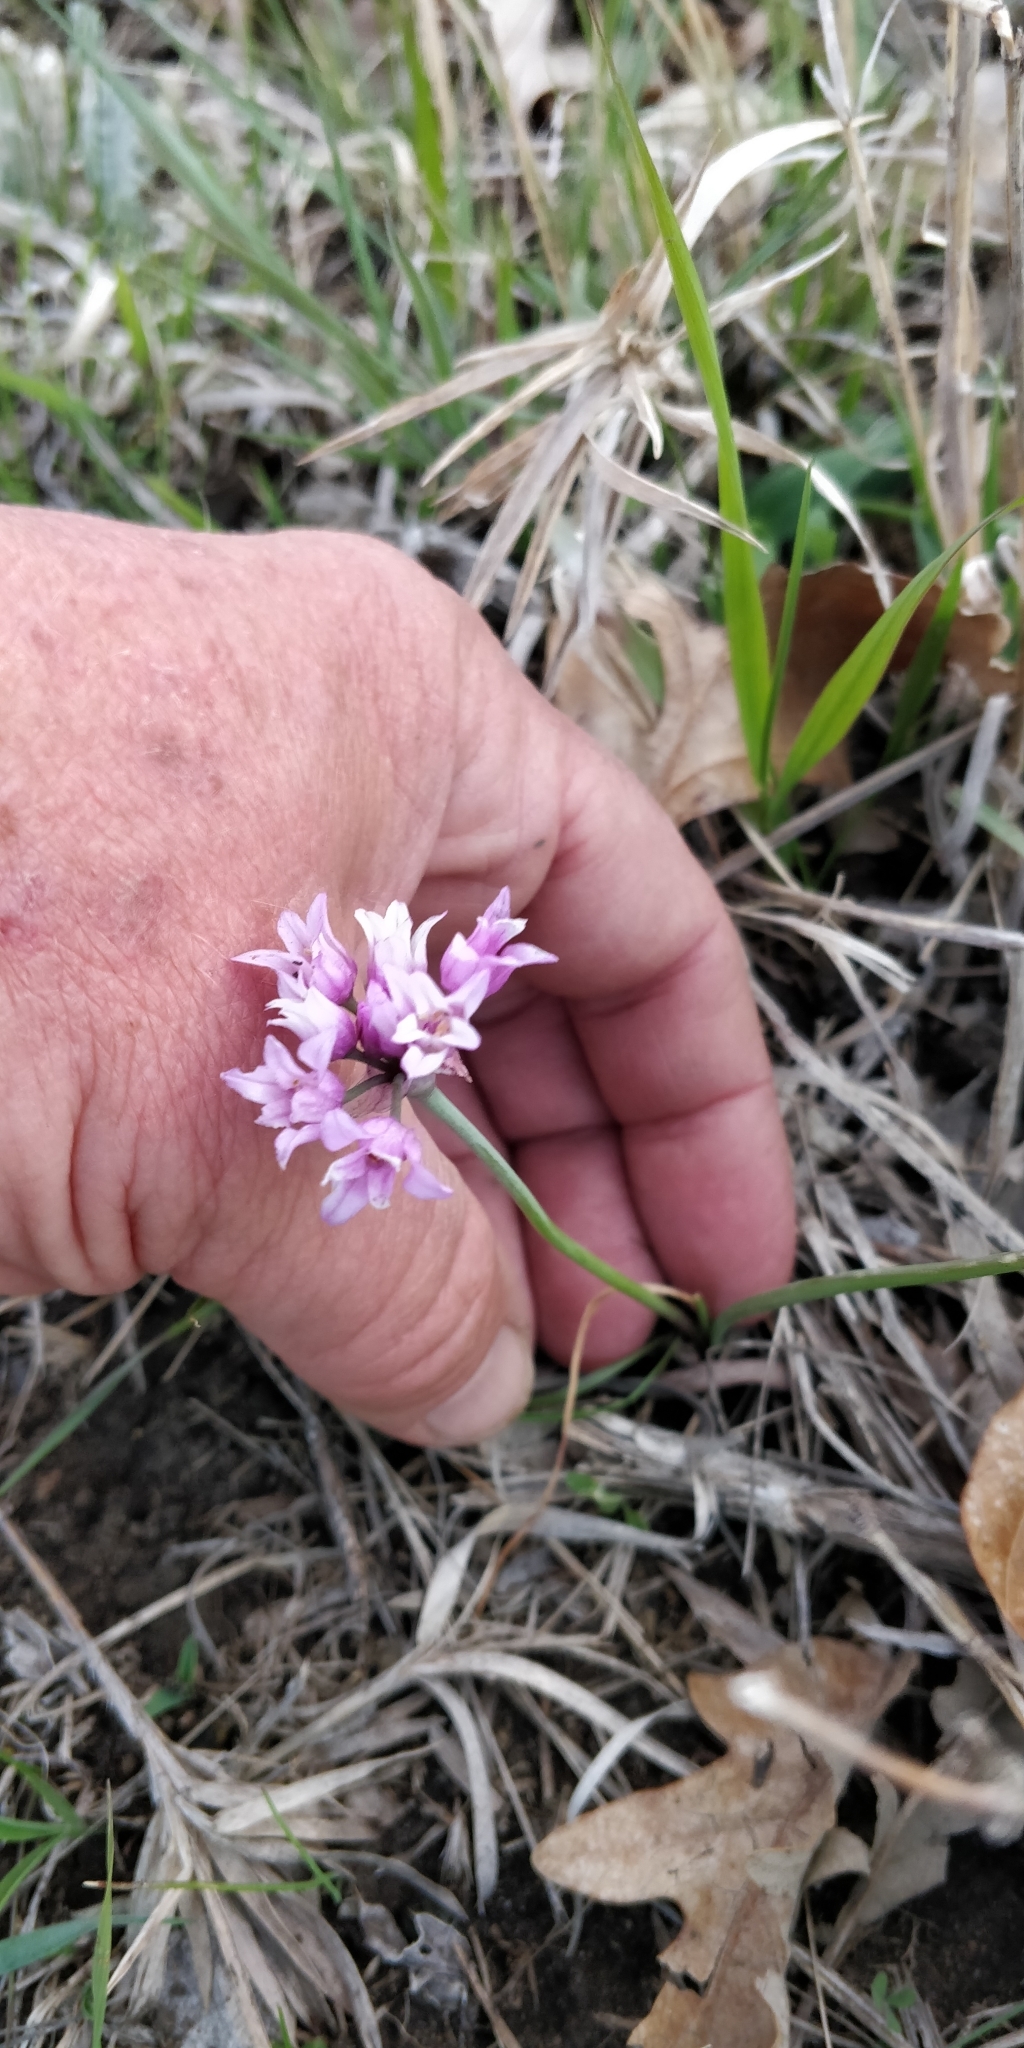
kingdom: Plantae
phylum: Tracheophyta
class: Liliopsida
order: Asparagales
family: Amaryllidaceae
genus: Allium
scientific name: Allium perdulce
